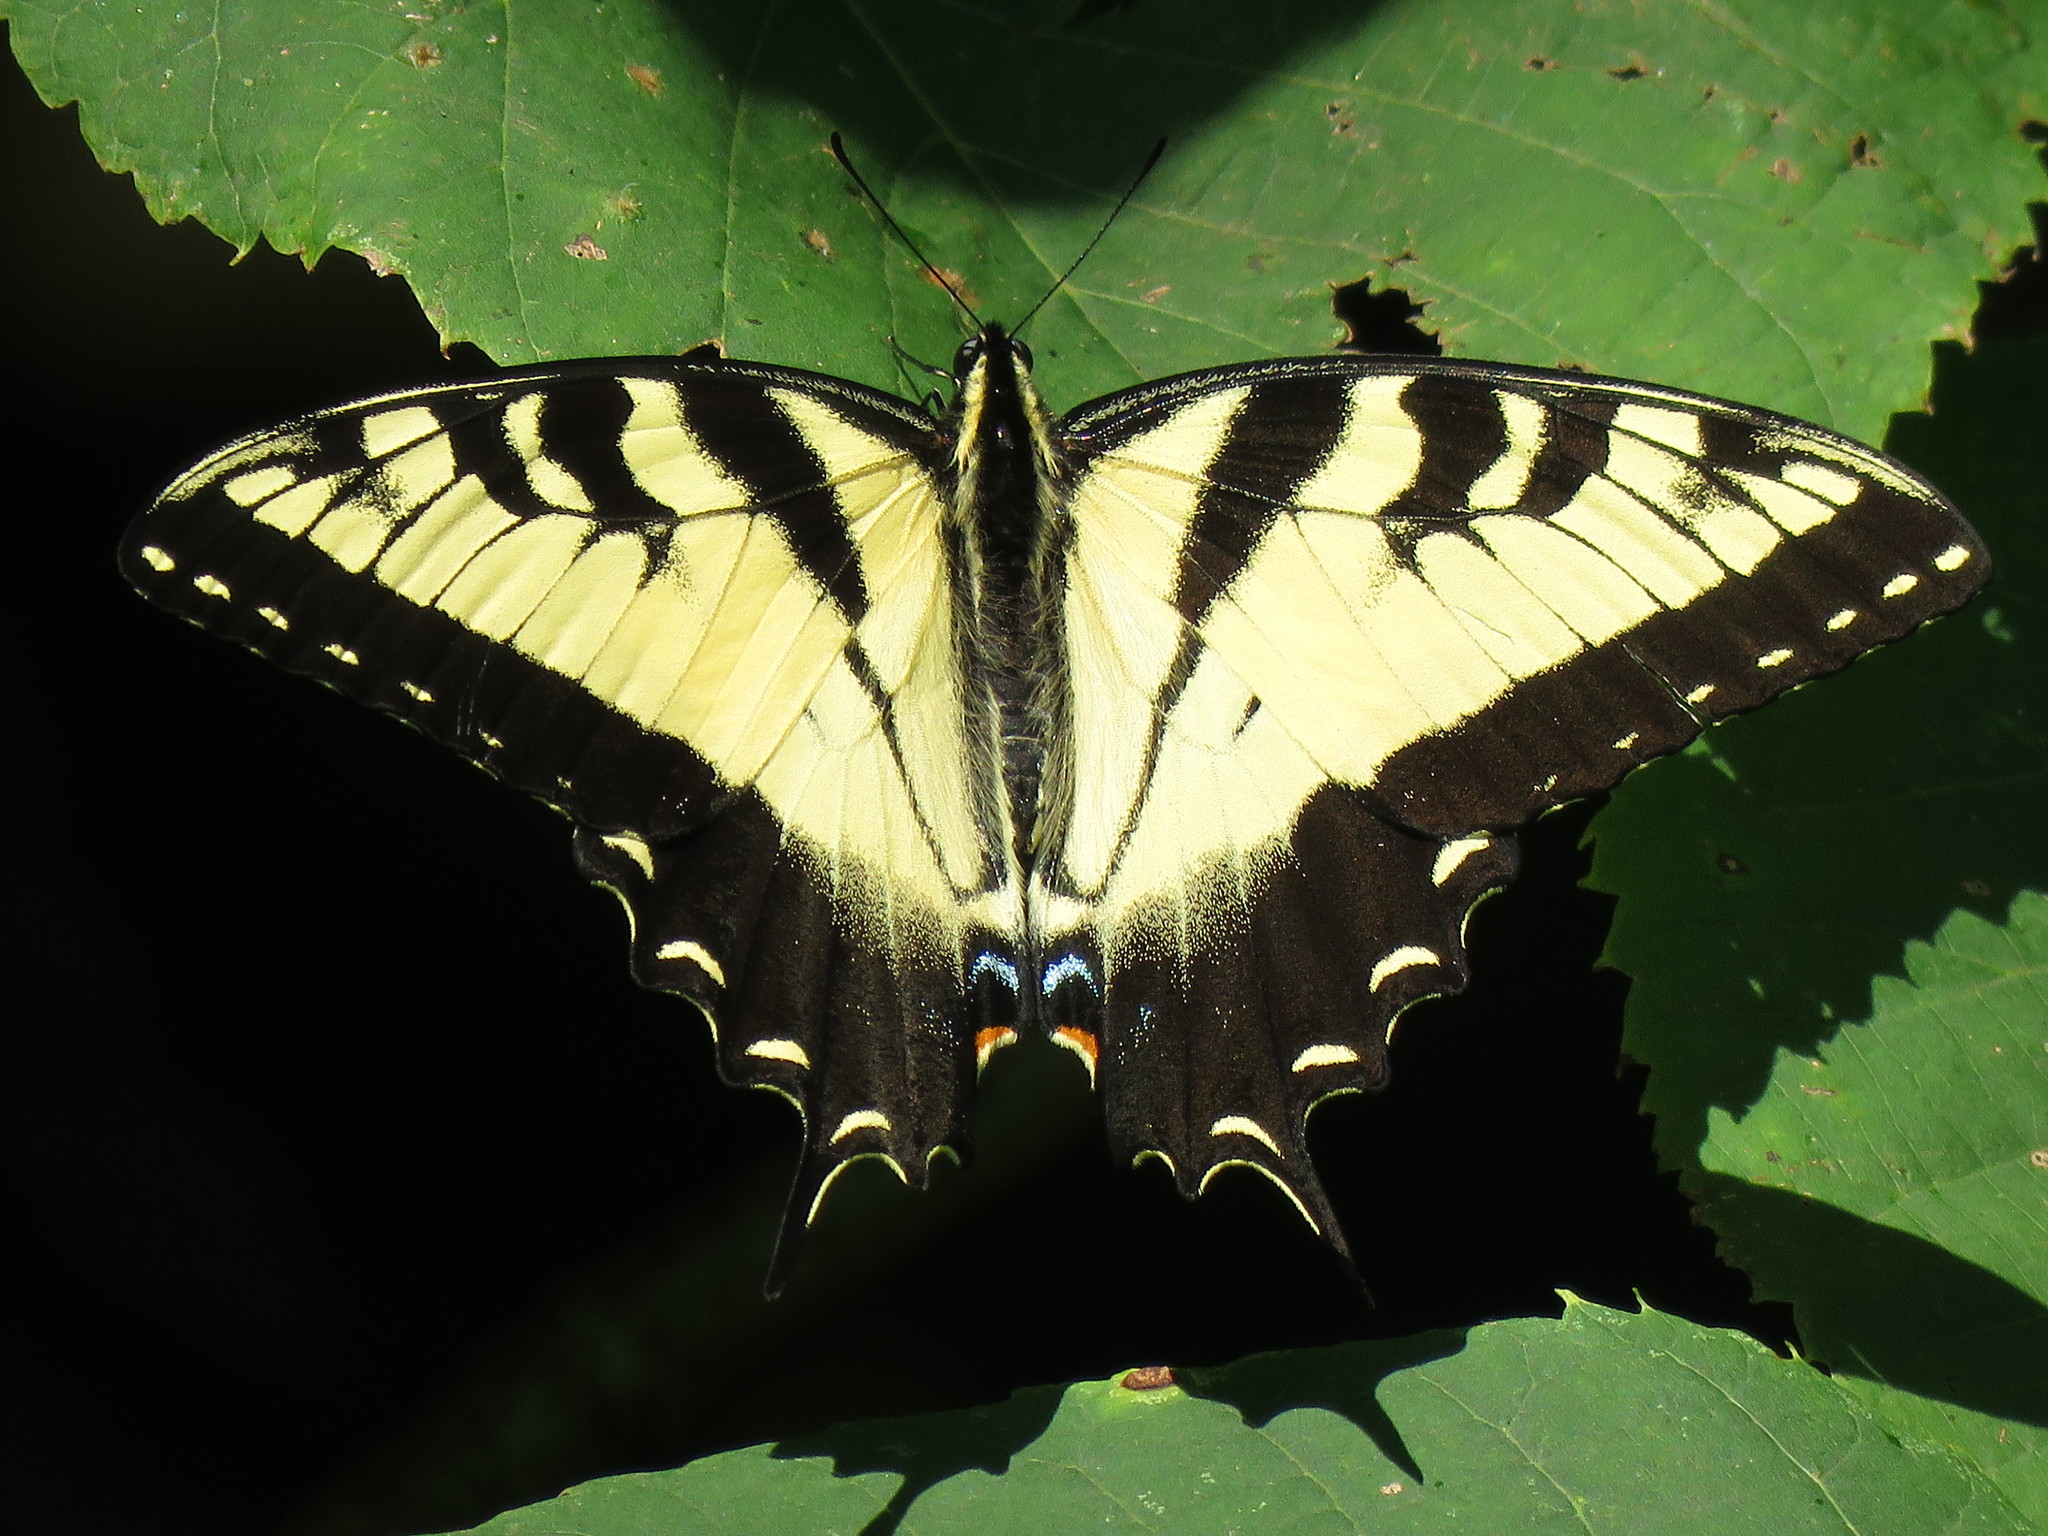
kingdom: Animalia
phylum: Arthropoda
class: Insecta
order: Lepidoptera
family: Papilionidae
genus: Papilio
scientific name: Papilio glaucus
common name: Tiger swallowtail
